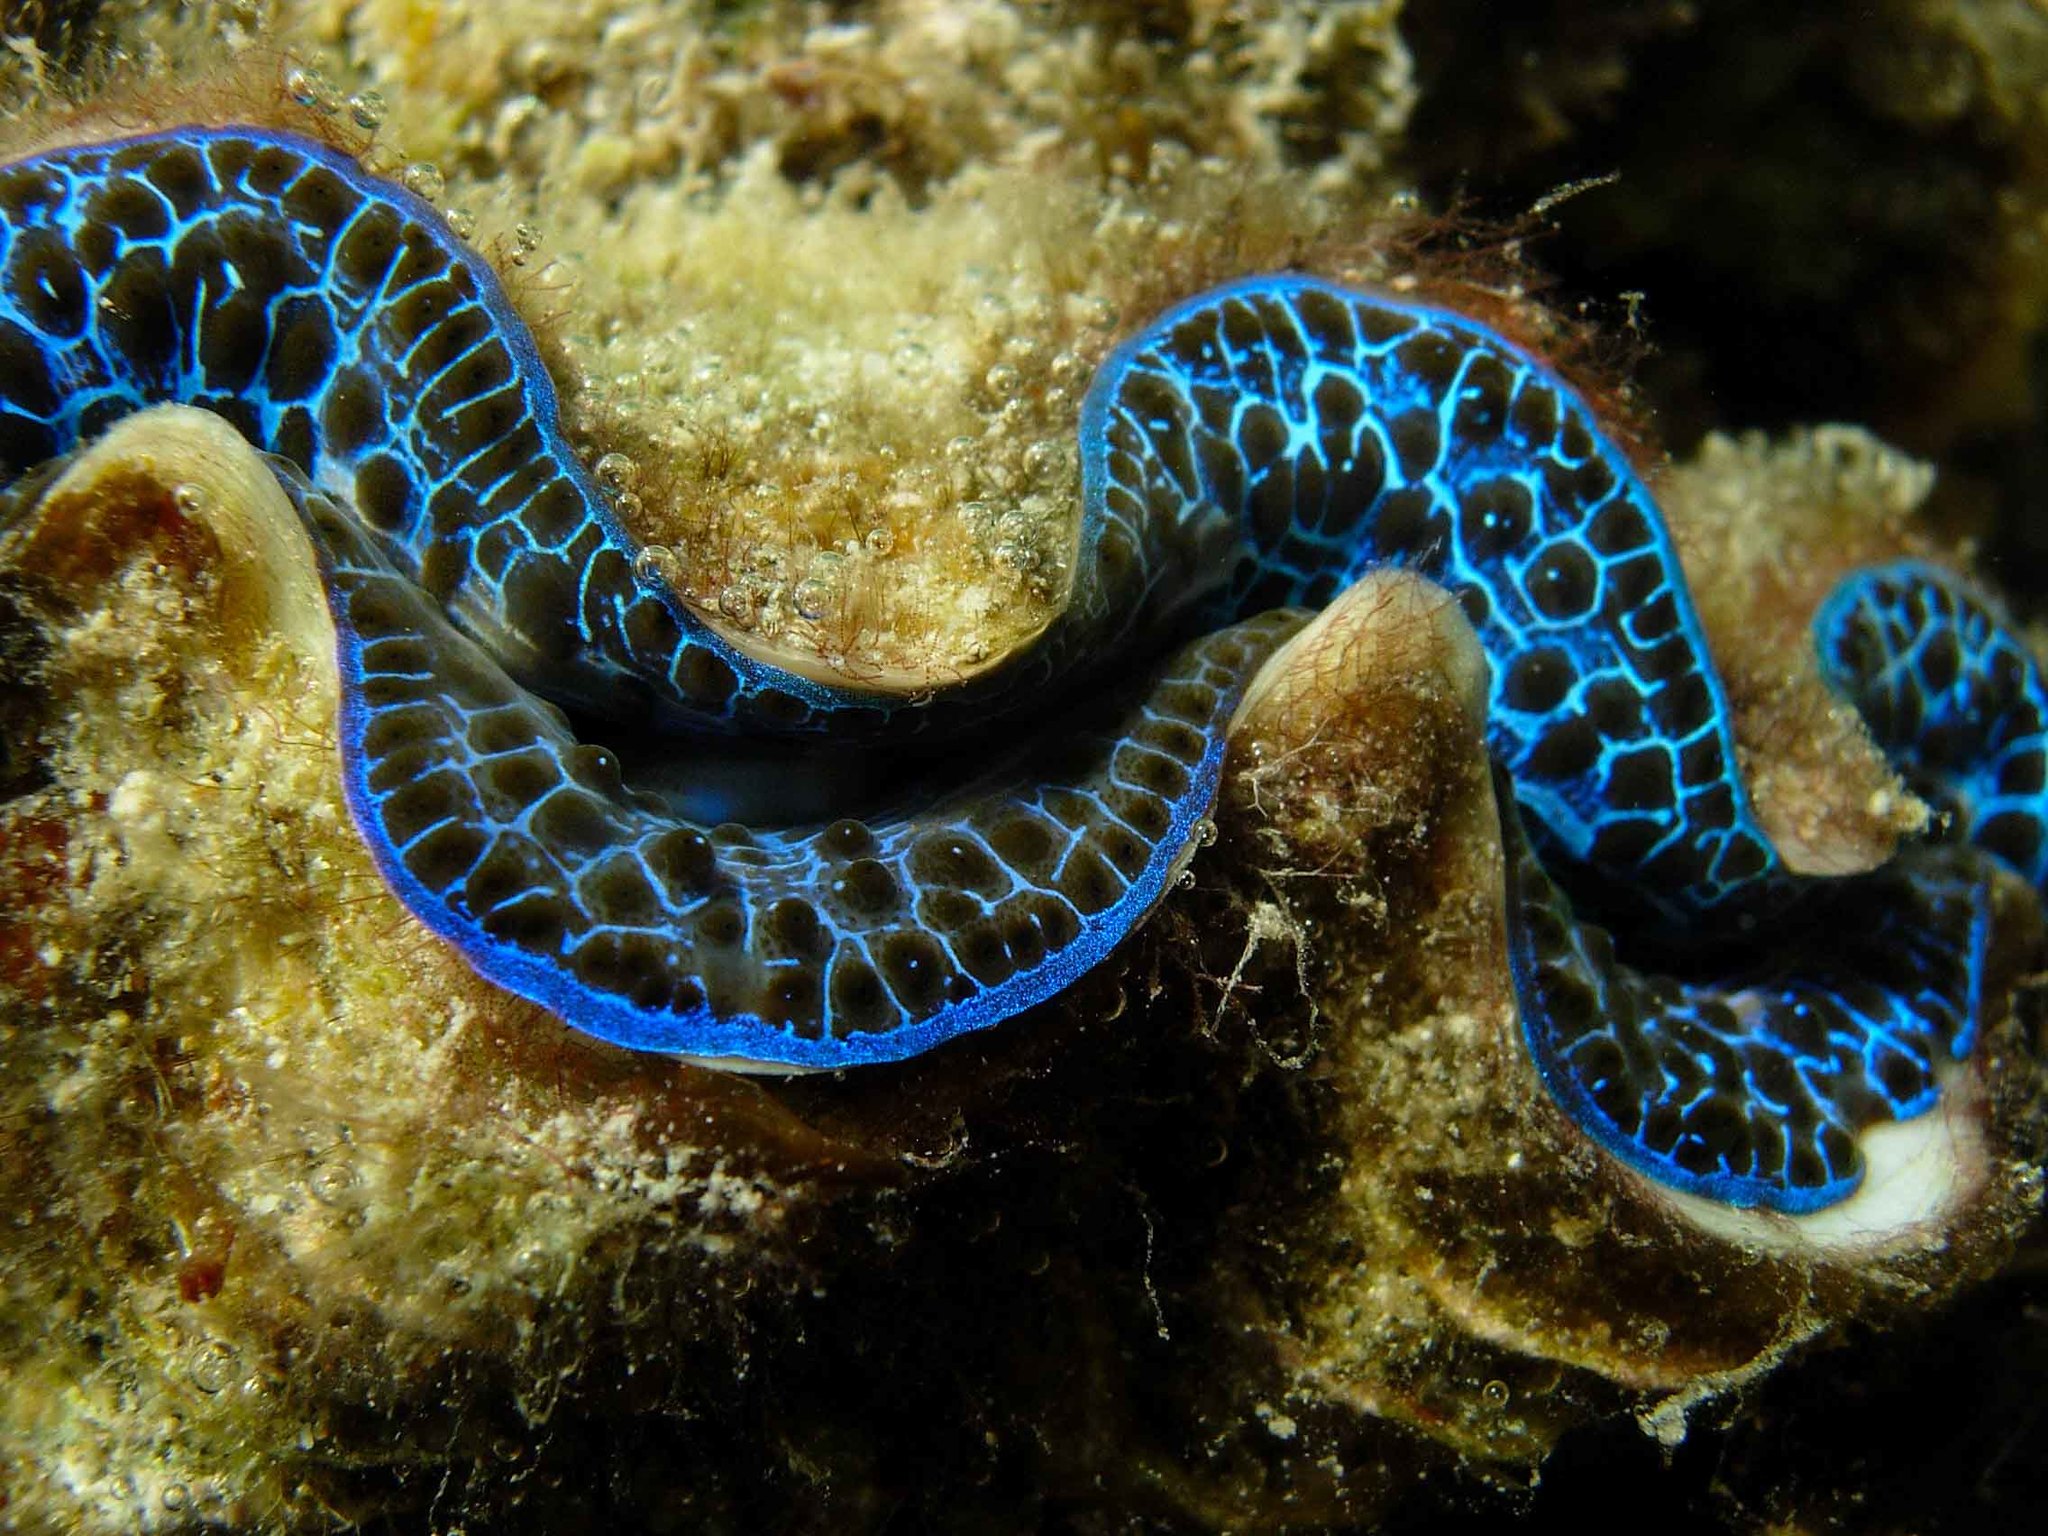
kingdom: Animalia
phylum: Mollusca
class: Bivalvia
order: Cardiida
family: Cardiidae
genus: Tridacna
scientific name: Tridacna maxima
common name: Small giant clam
